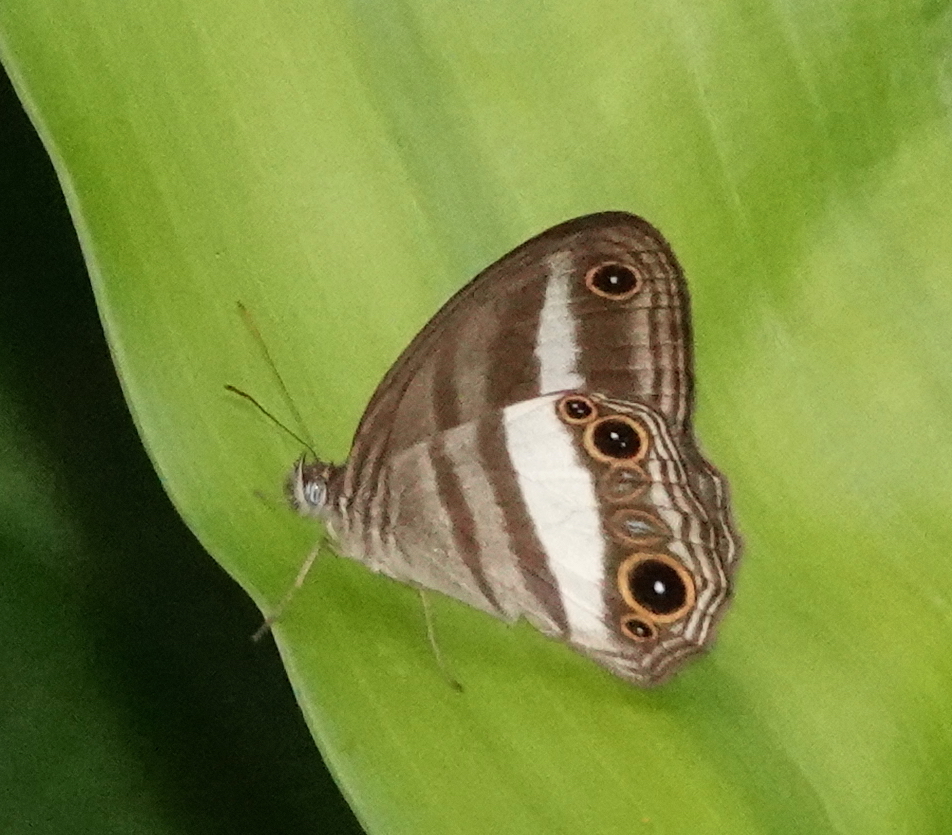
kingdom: Animalia
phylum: Arthropoda
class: Insecta
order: Lepidoptera
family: Nymphalidae
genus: Euptychoides
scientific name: Euptychoides albofasciata
